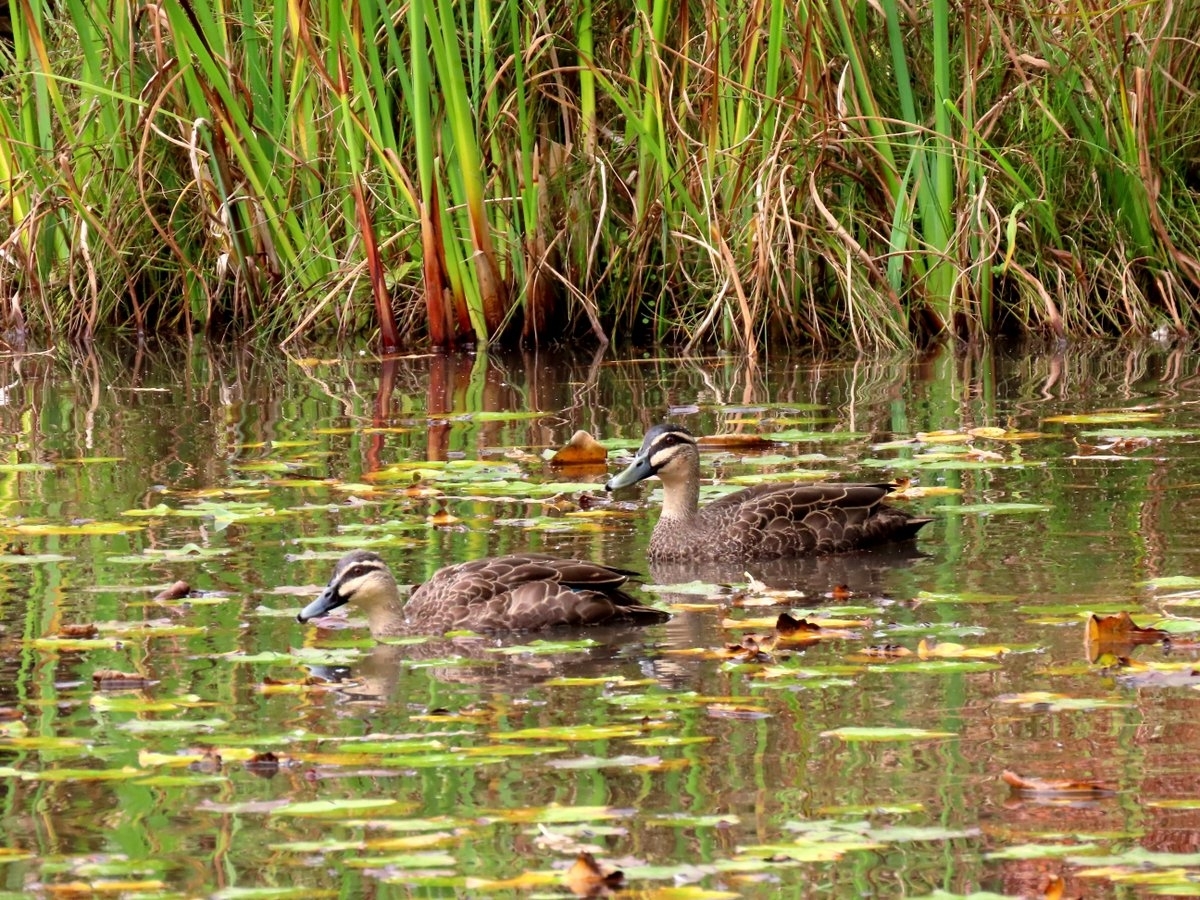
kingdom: Animalia
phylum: Chordata
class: Aves
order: Anseriformes
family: Anatidae
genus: Anas
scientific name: Anas superciliosa
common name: Pacific black duck
